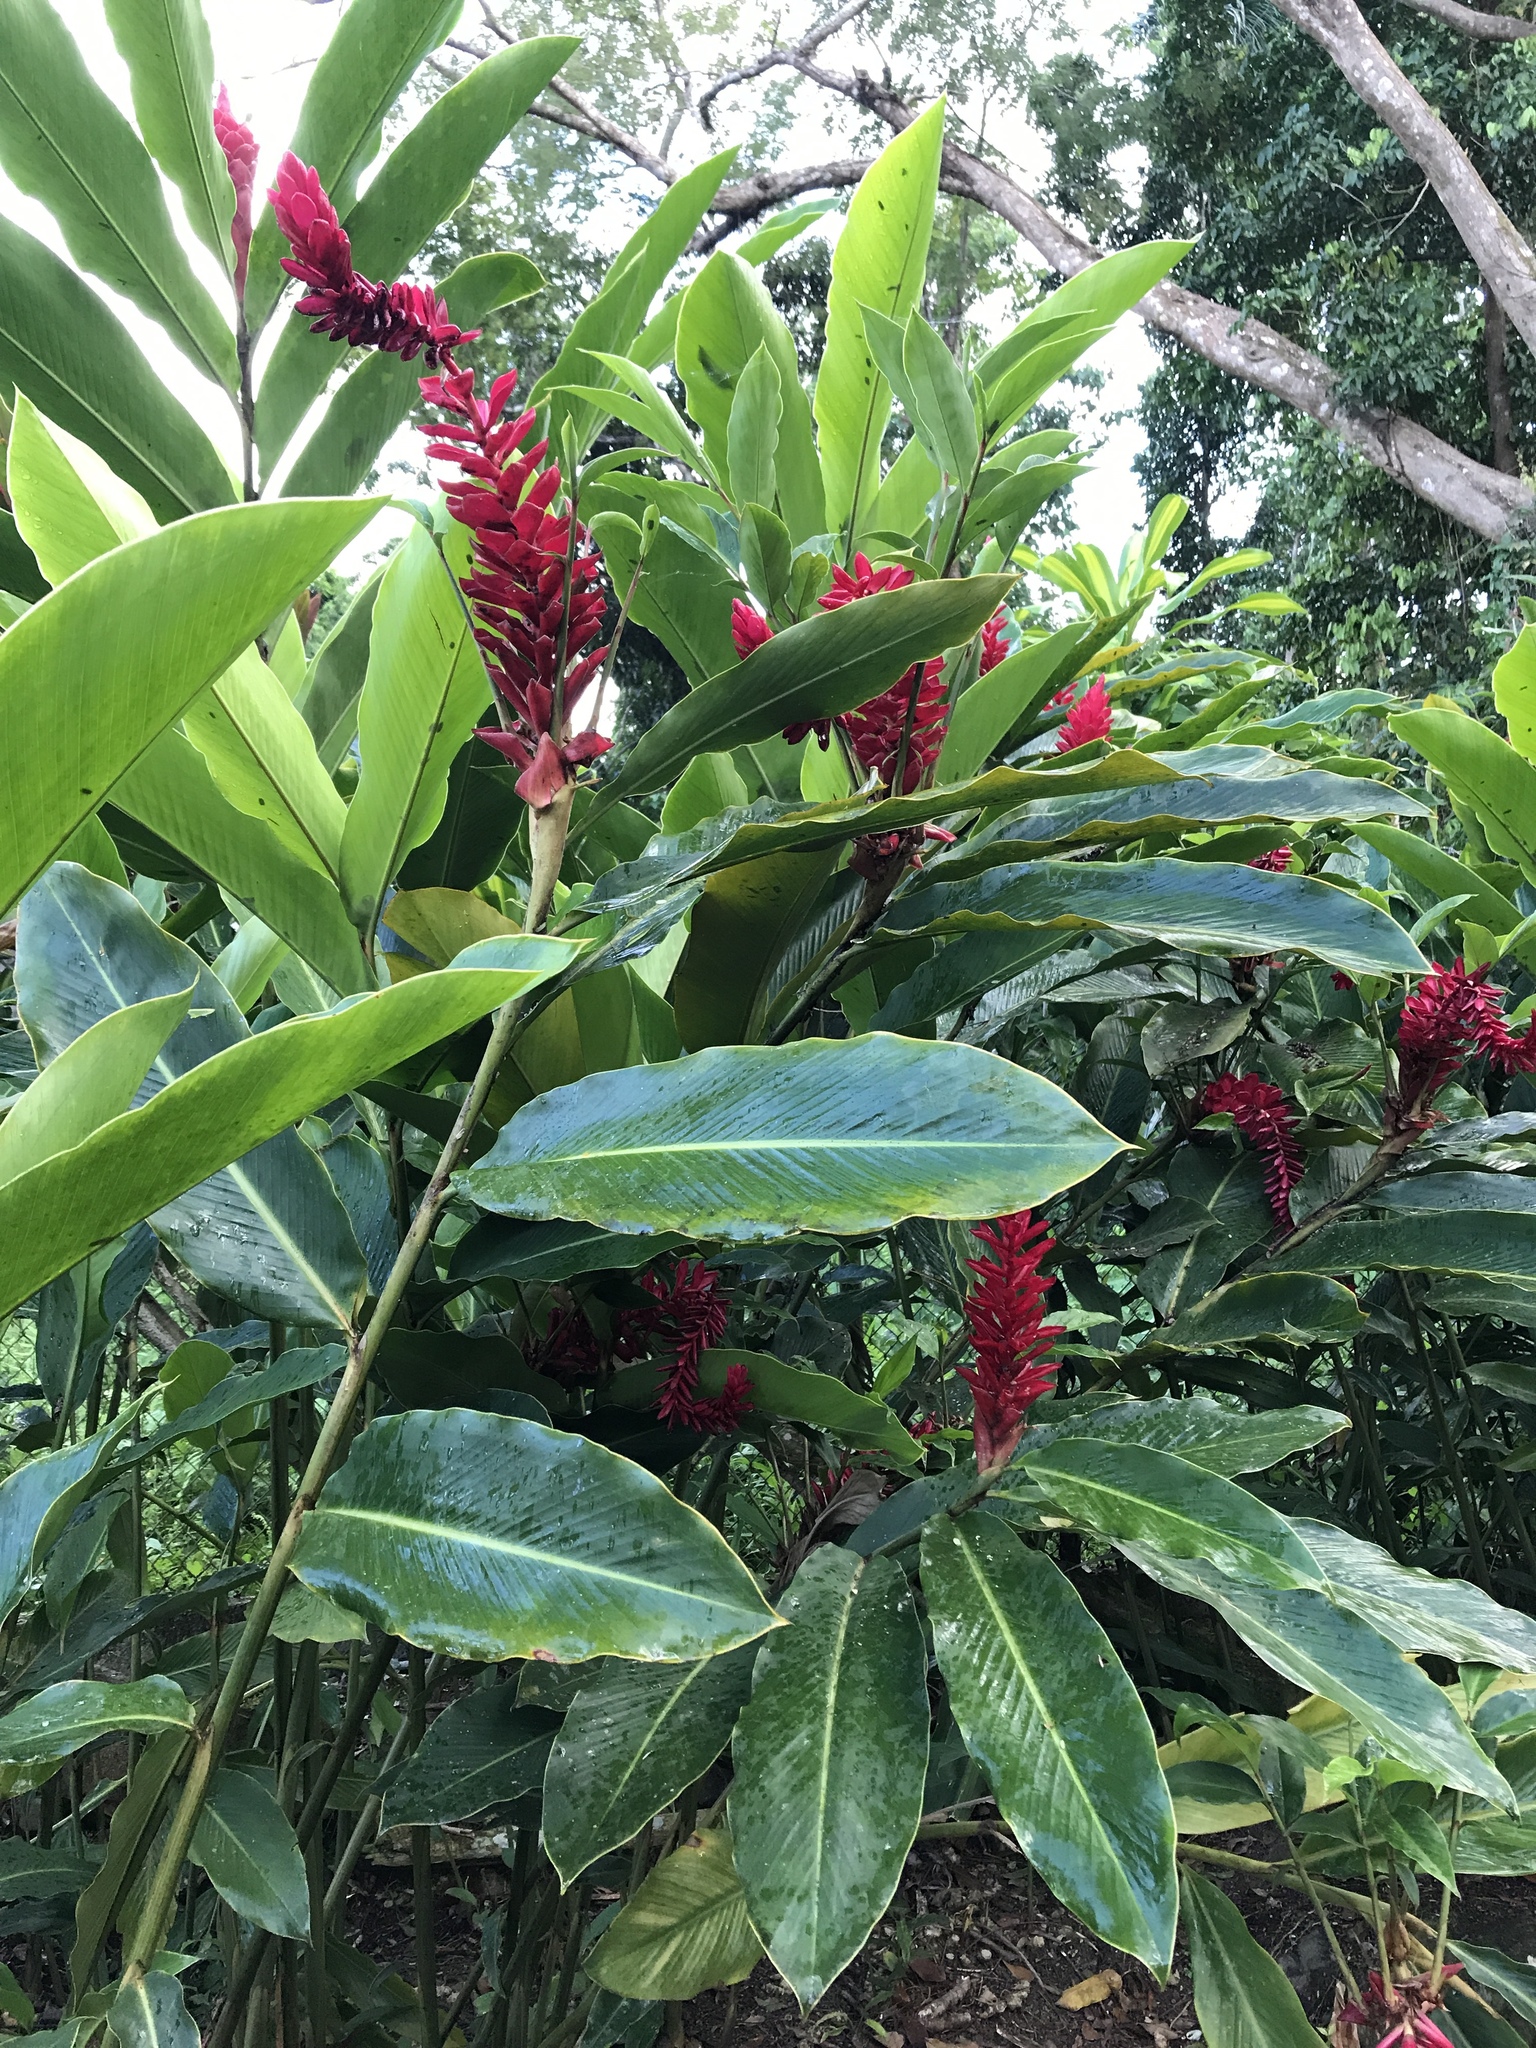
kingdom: Plantae
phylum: Tracheophyta
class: Liliopsida
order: Zingiberales
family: Zingiberaceae
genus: Alpinia
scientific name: Alpinia purpurata
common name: Red ginger
